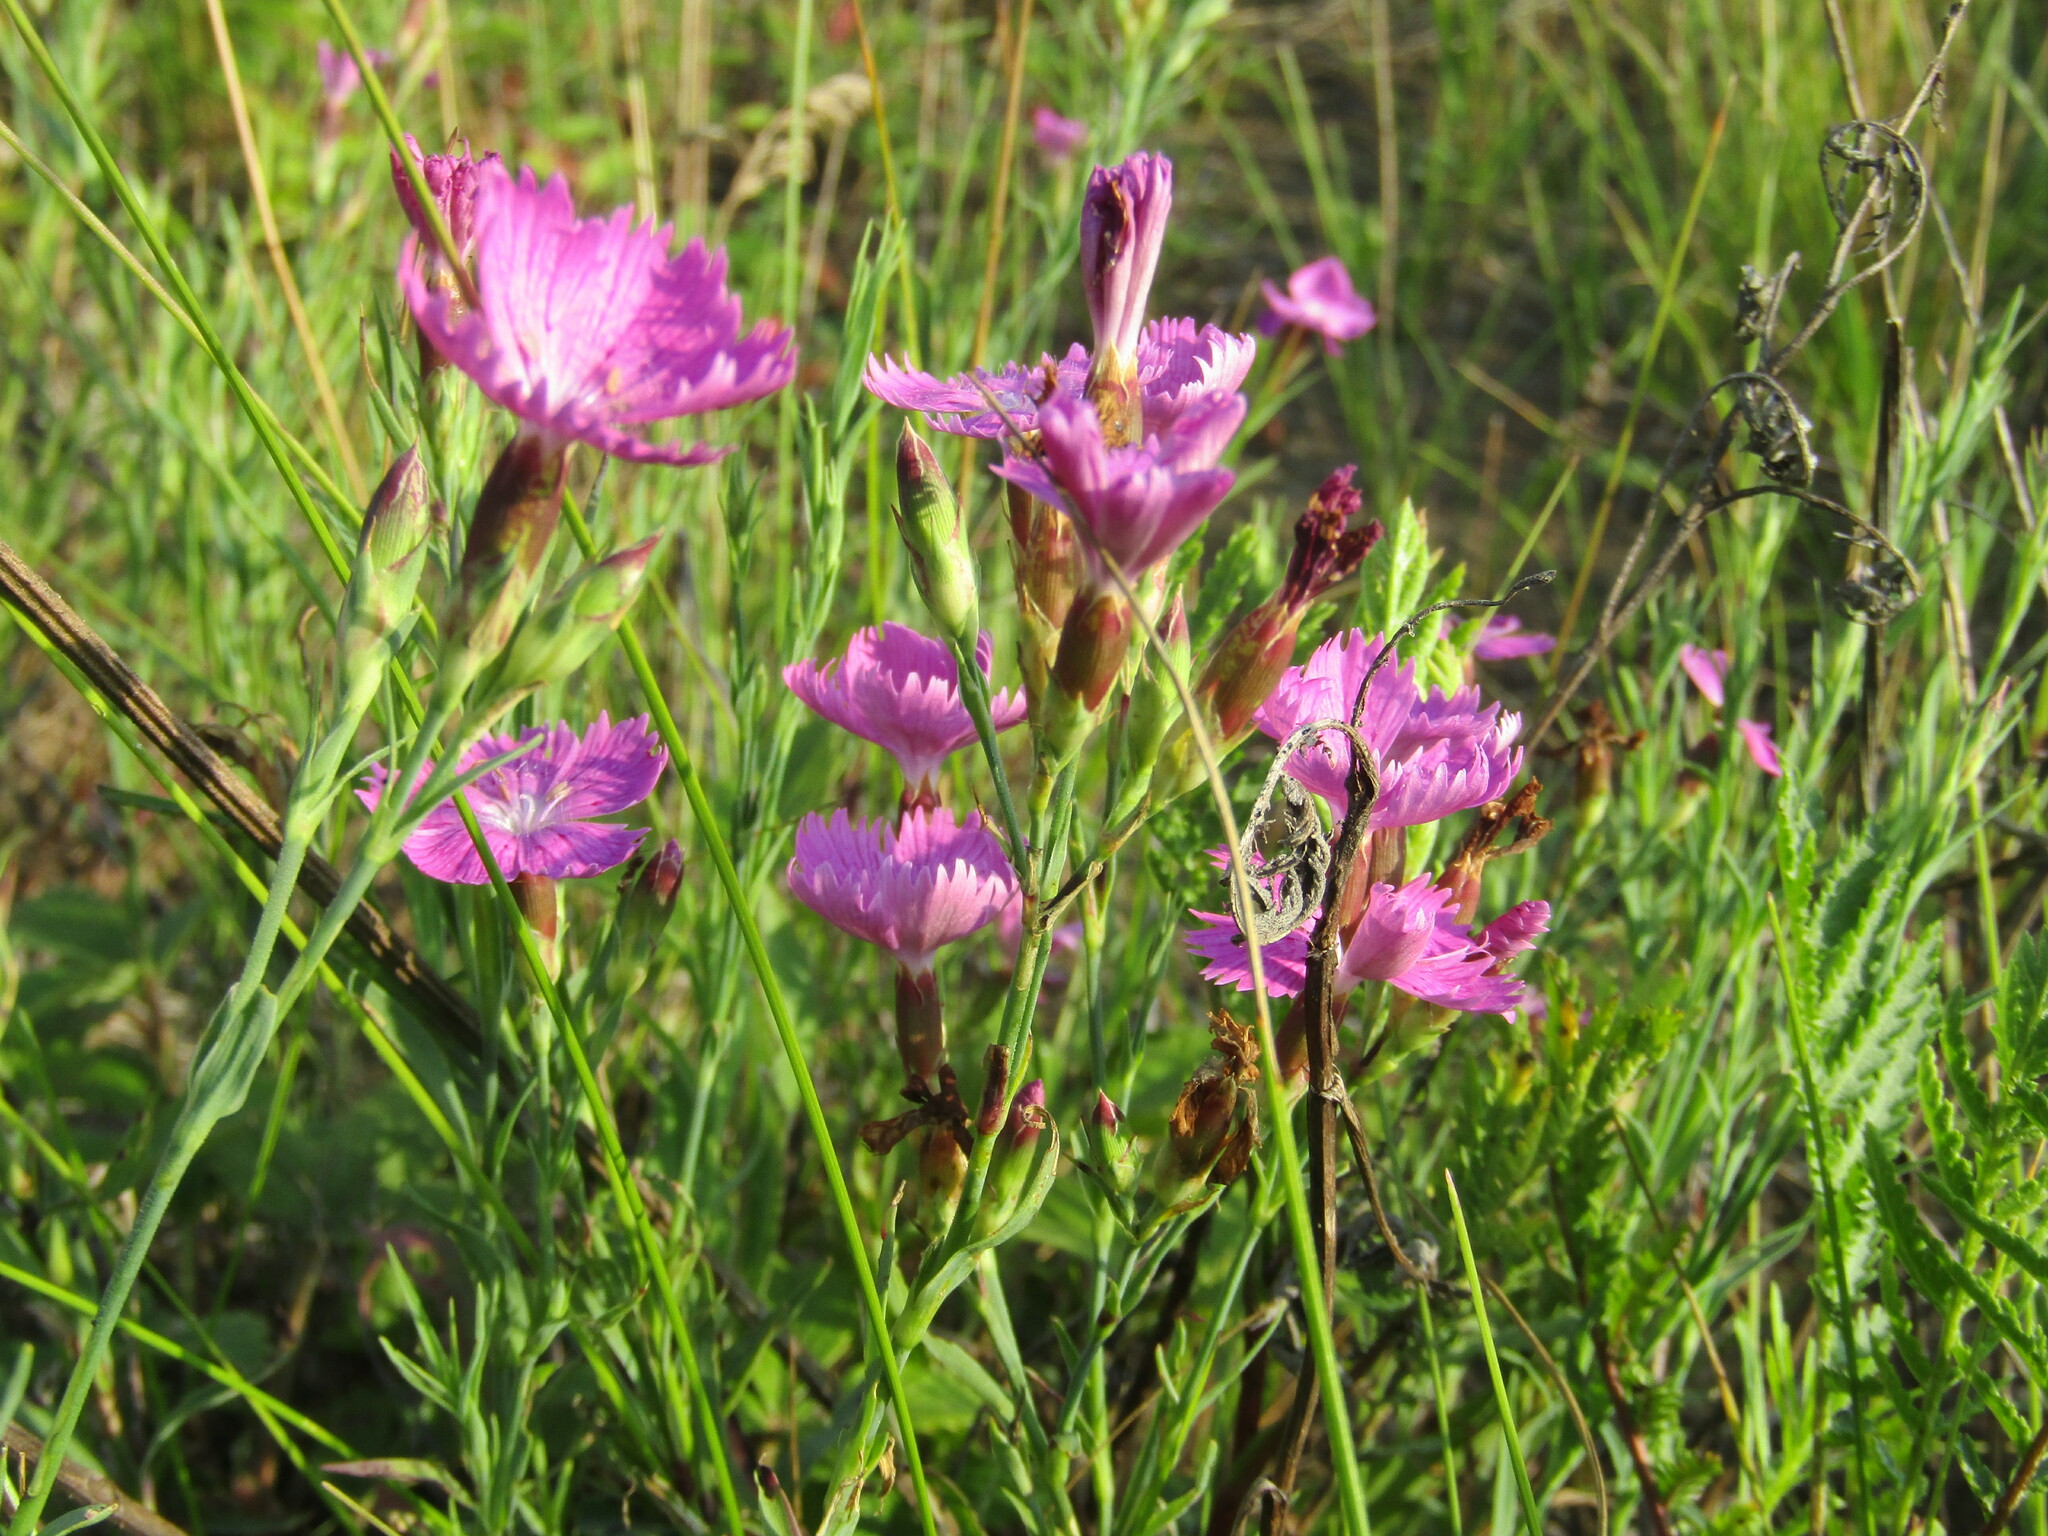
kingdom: Plantae
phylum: Tracheophyta
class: Magnoliopsida
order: Caryophyllales
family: Caryophyllaceae
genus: Dianthus
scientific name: Dianthus chinensis
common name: Rainbow pink
